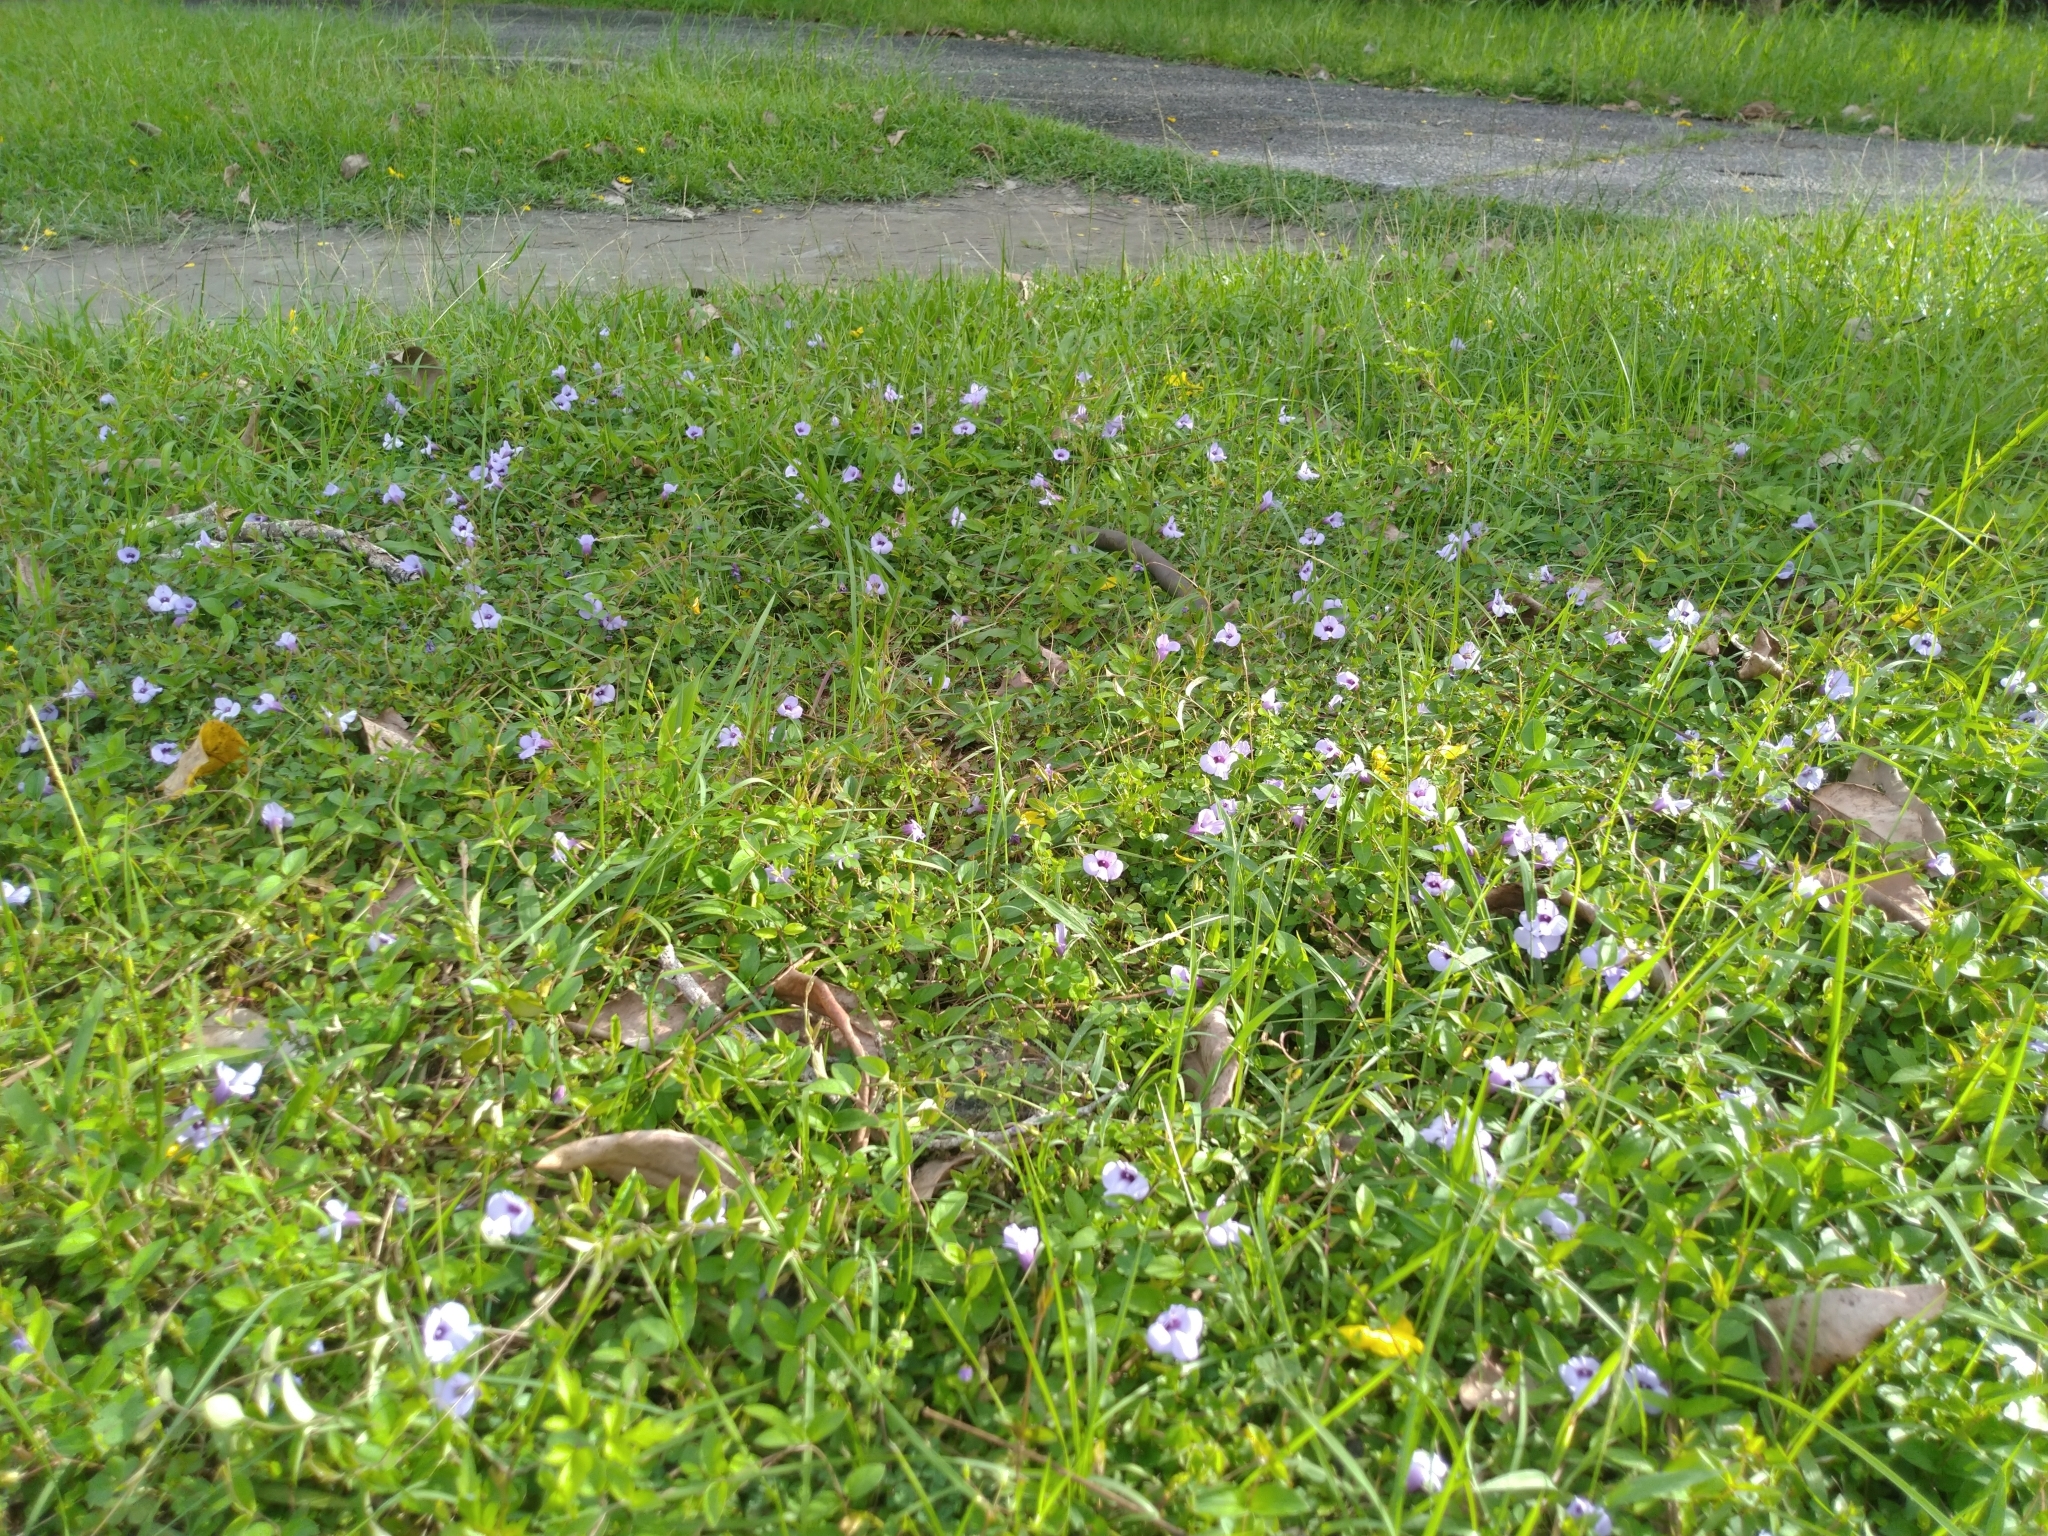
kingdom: Plantae
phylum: Tracheophyta
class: Magnoliopsida
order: Lamiales
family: Linderniaceae
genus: Torenia
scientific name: Torenia concolor
